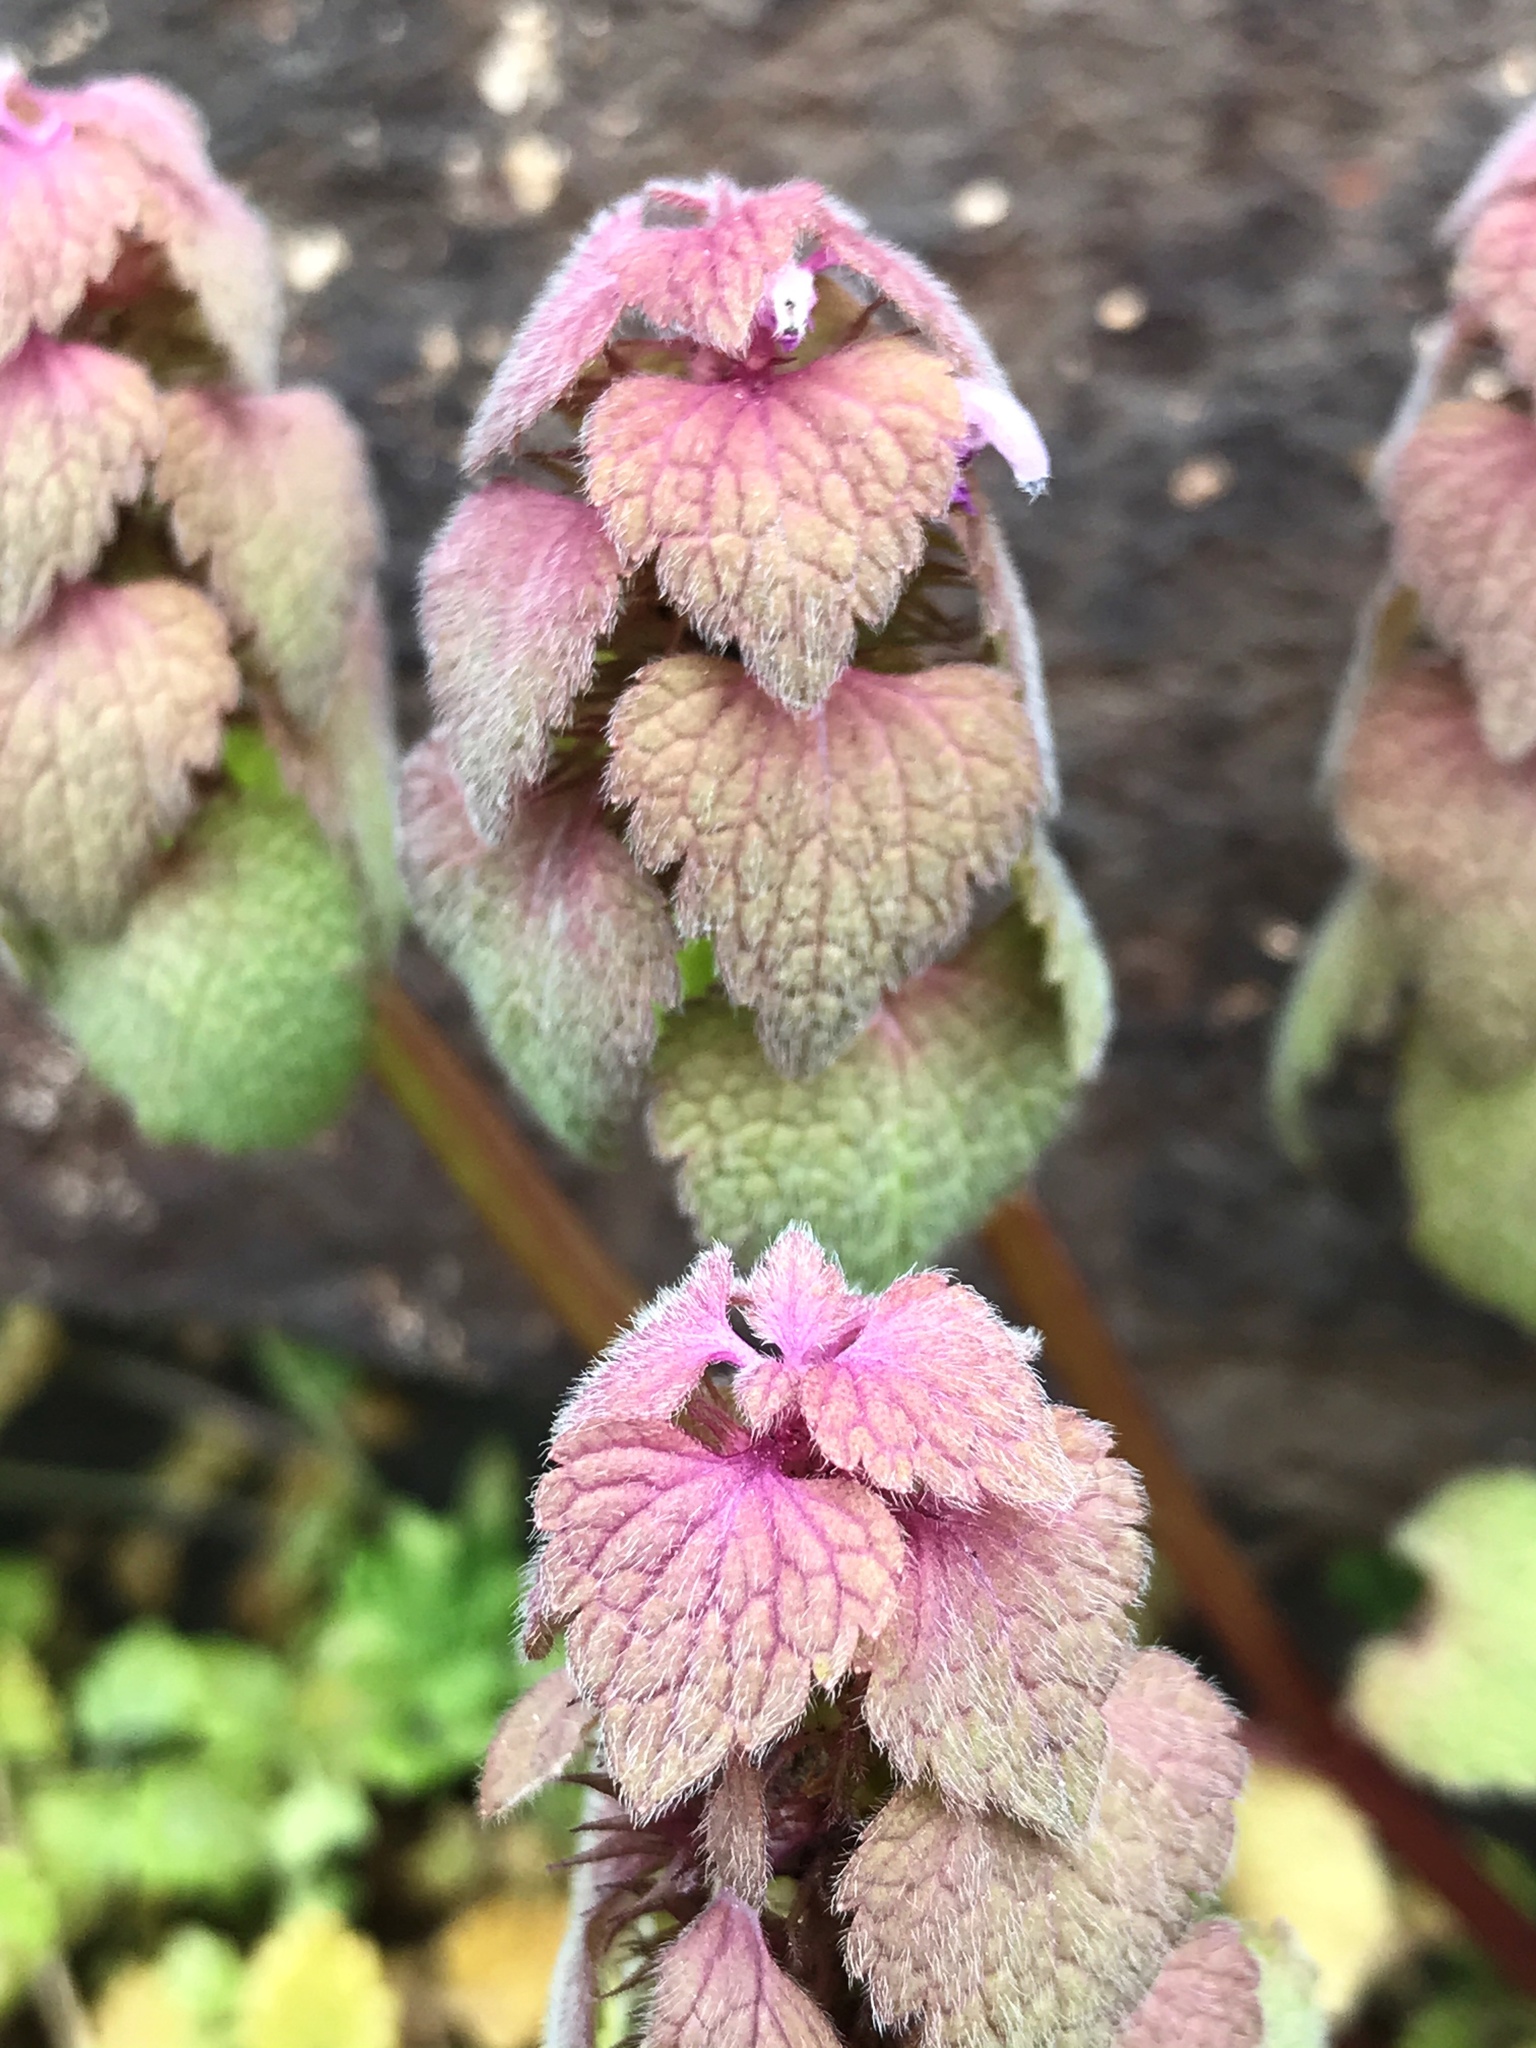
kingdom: Plantae
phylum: Tracheophyta
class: Magnoliopsida
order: Lamiales
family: Lamiaceae
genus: Lamium
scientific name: Lamium purpureum
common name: Red dead-nettle
